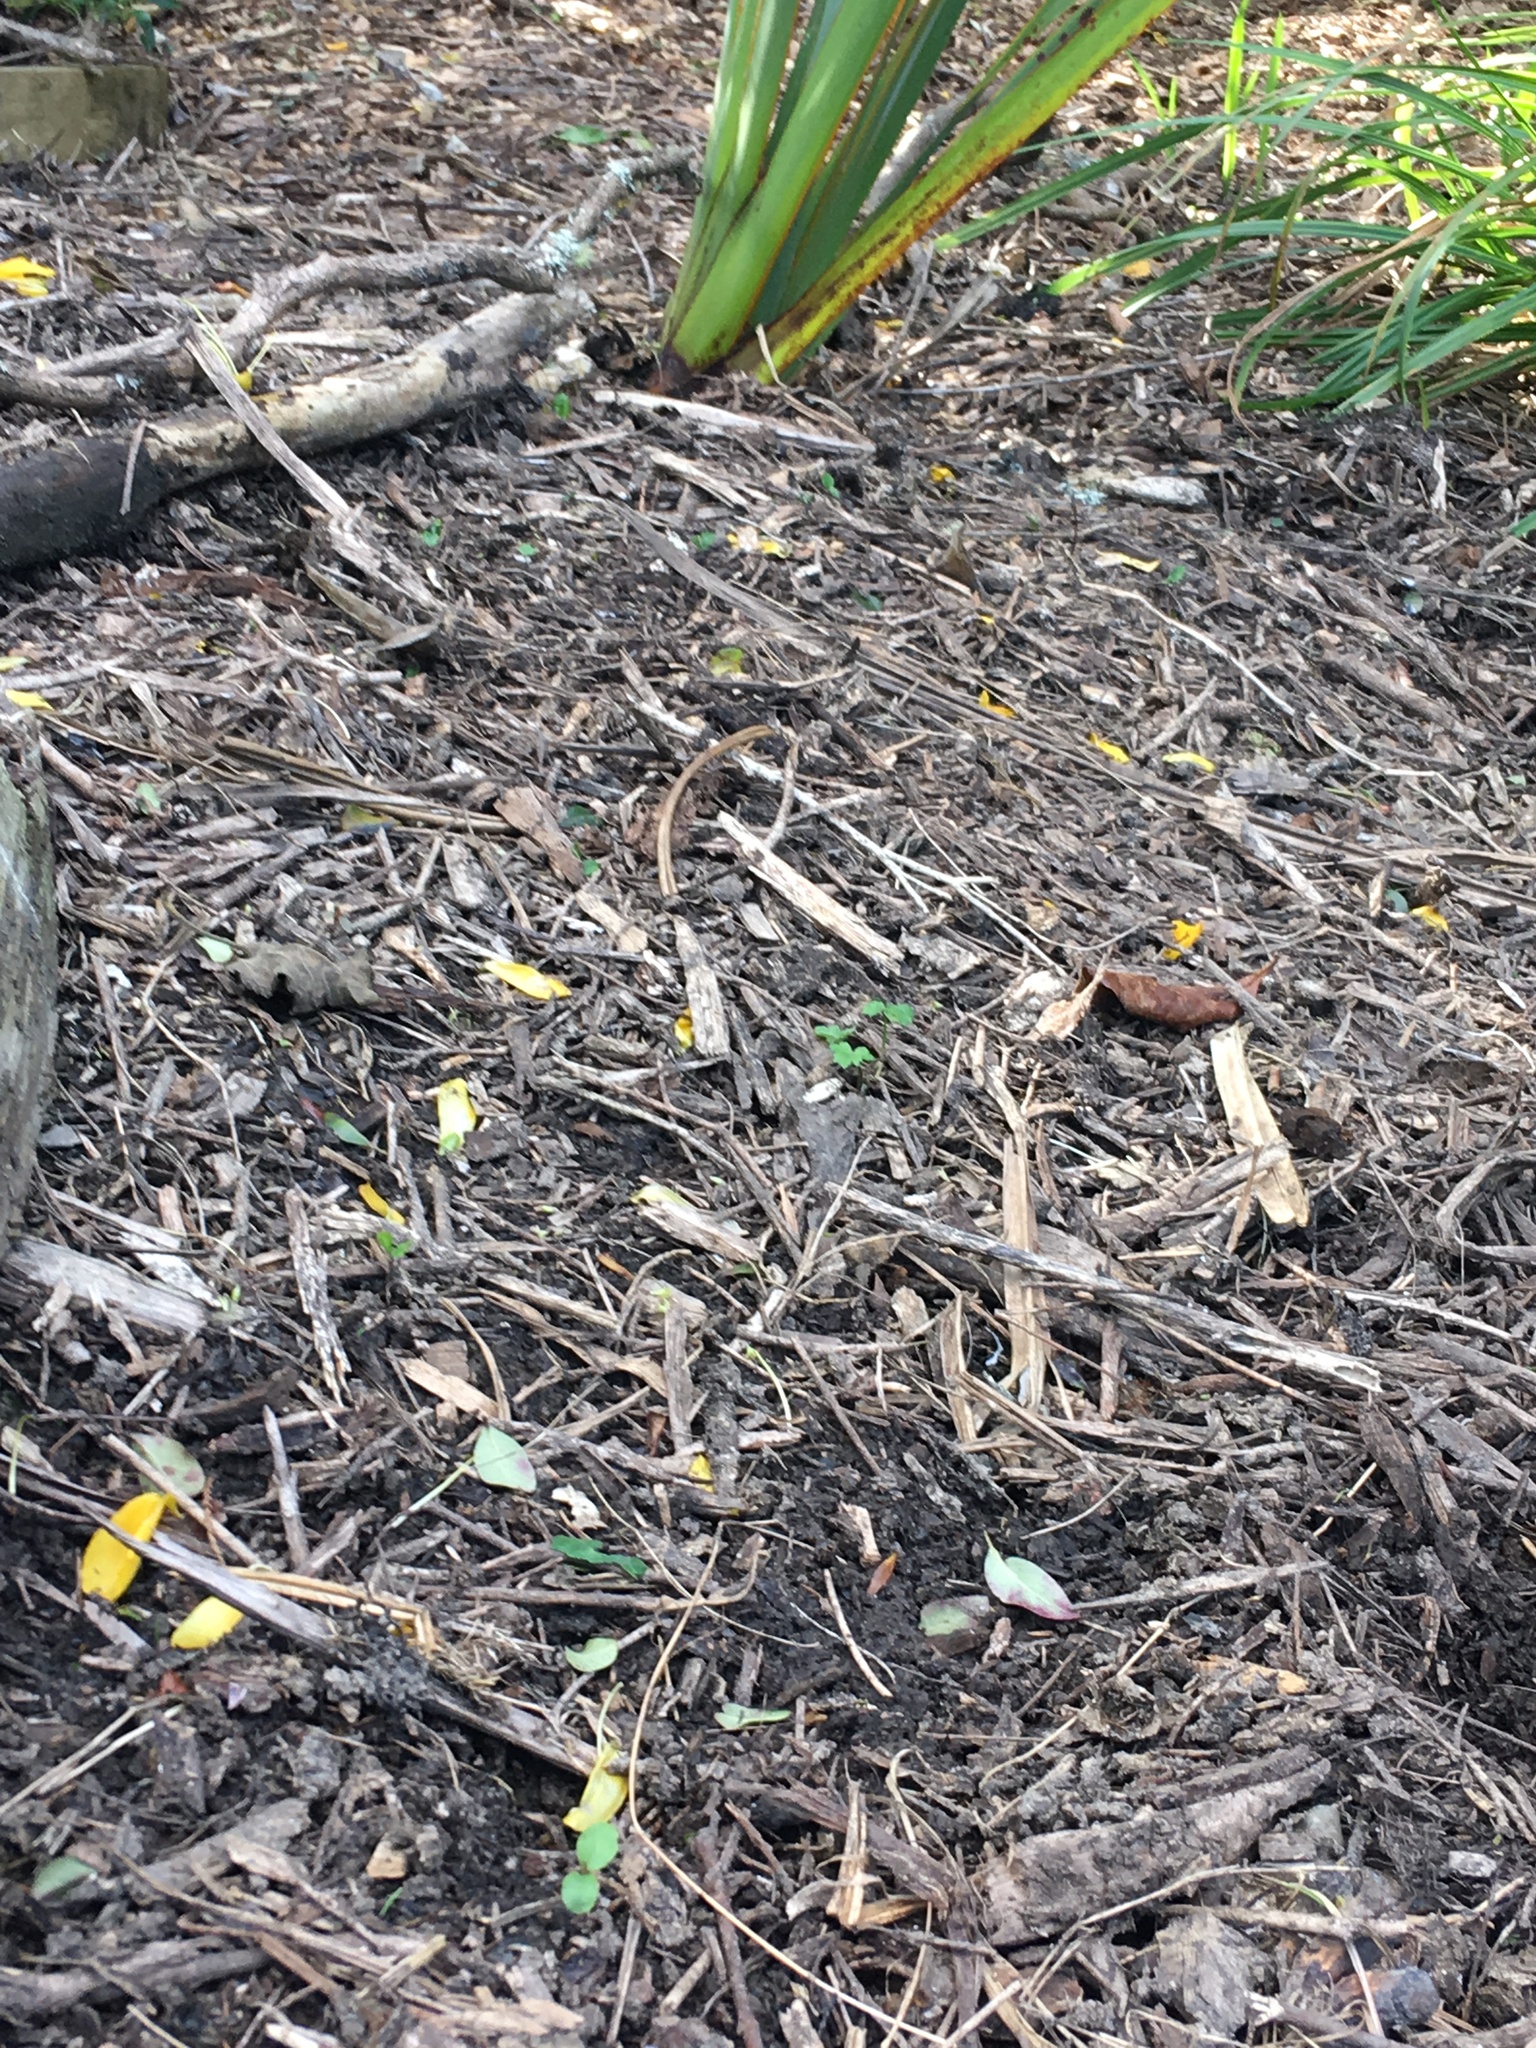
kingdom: Plantae
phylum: Tracheophyta
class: Magnoliopsida
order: Lamiales
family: Oleaceae
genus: Ligustrum
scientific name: Ligustrum sinense
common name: Chinese privet
